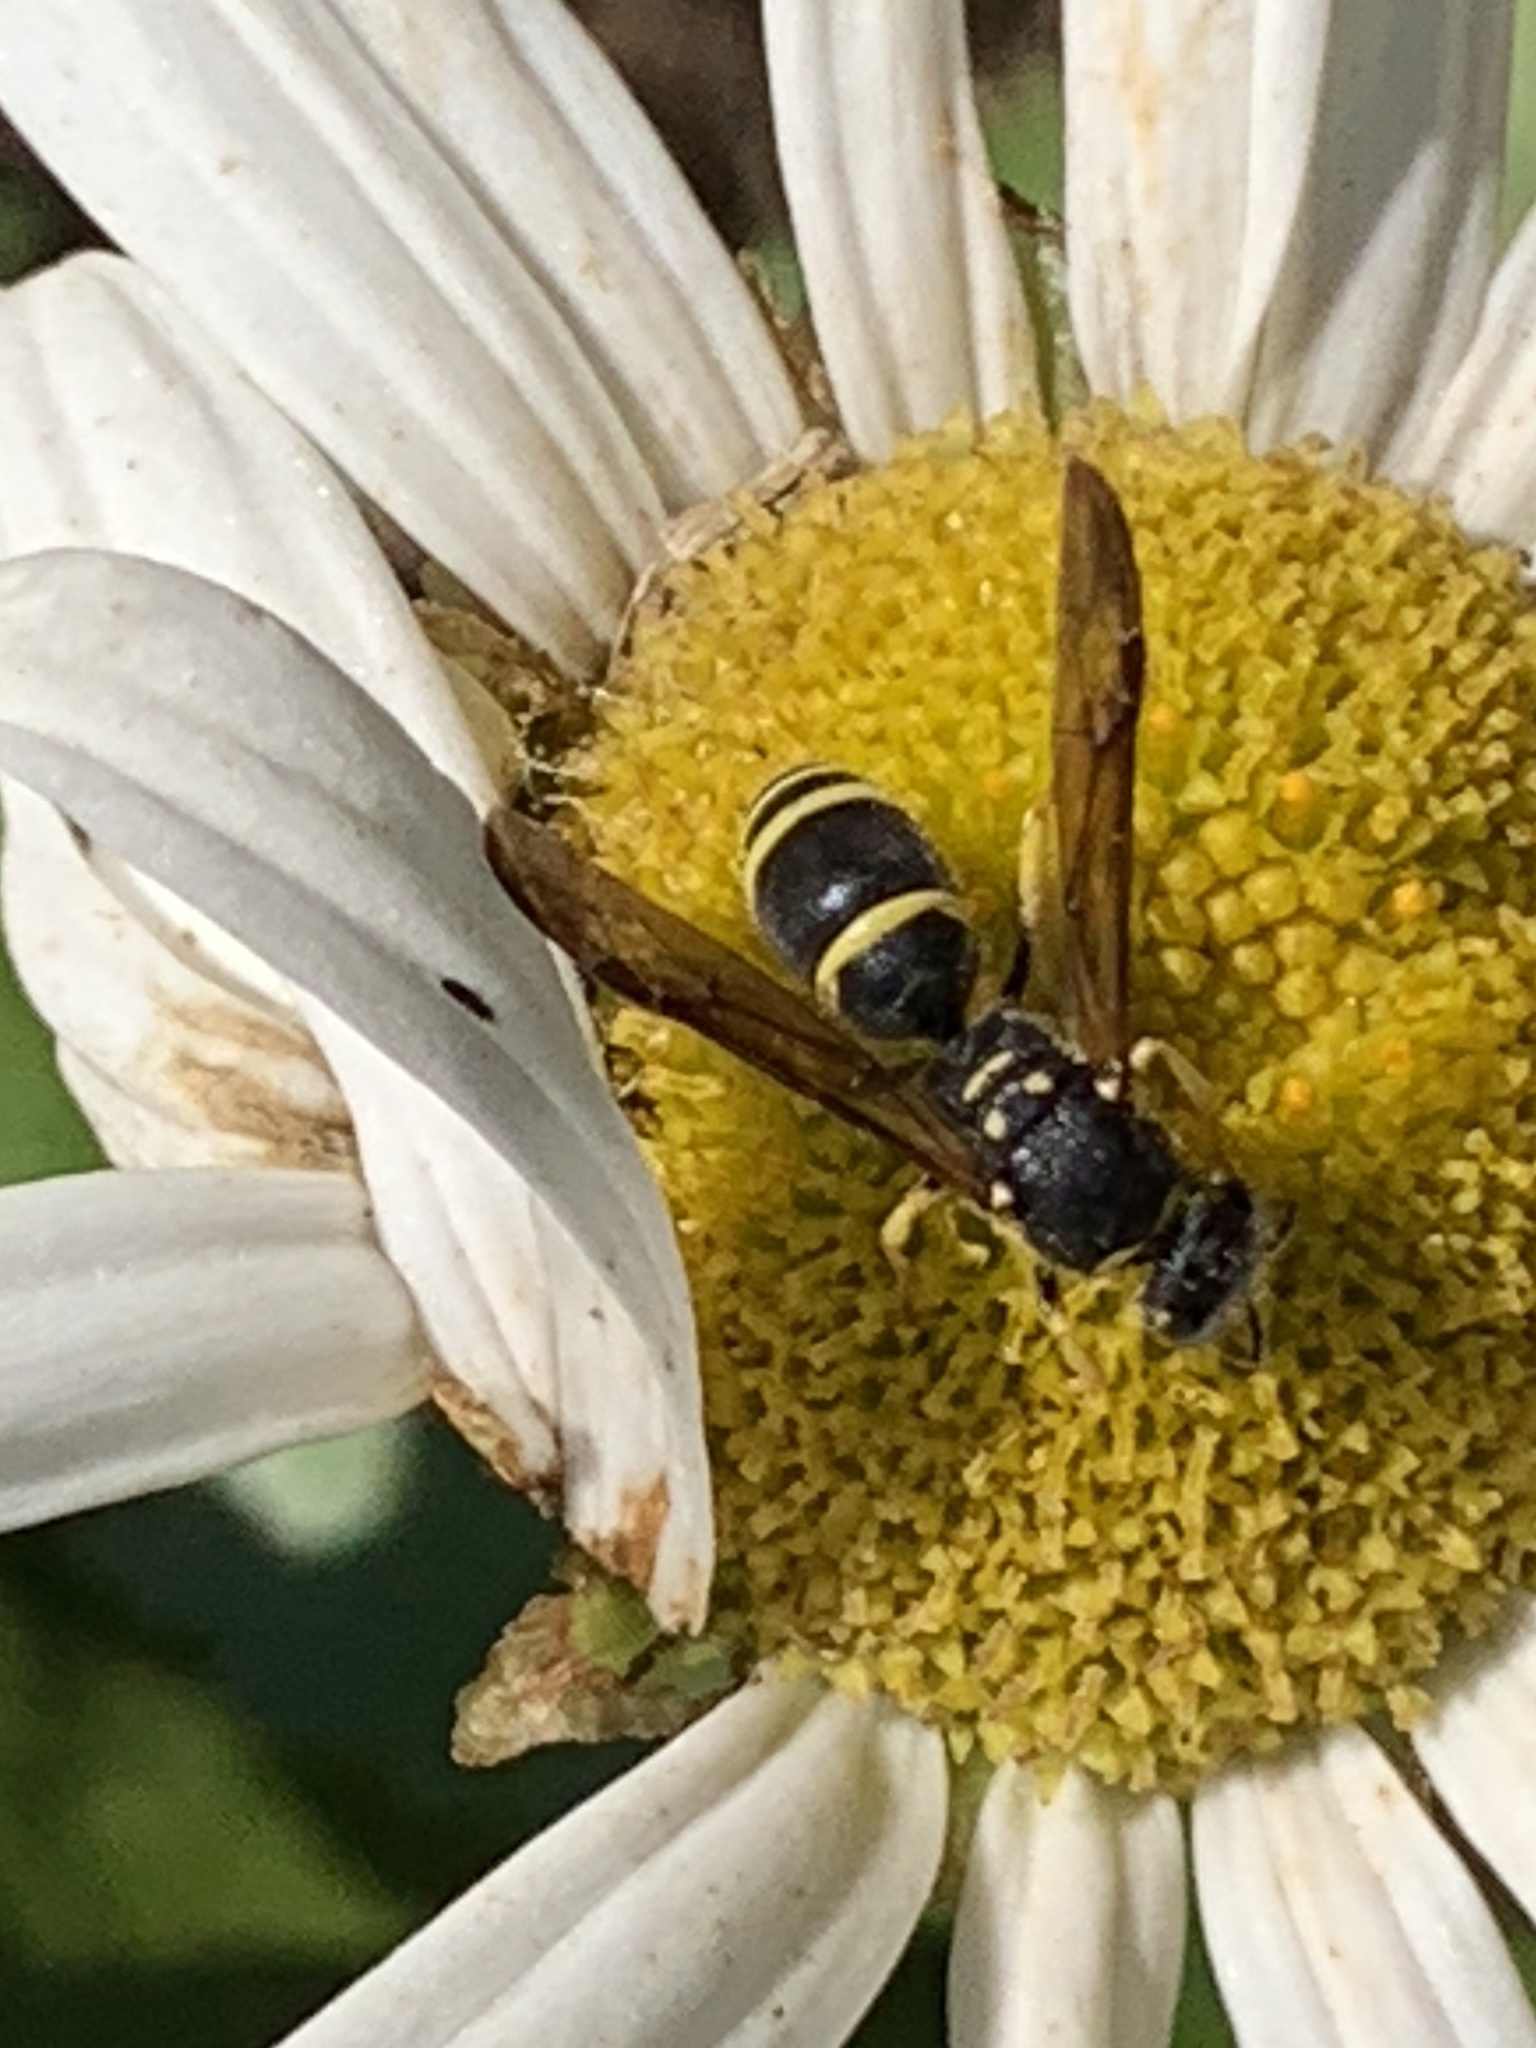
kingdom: Animalia
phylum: Arthropoda
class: Insecta
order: Hymenoptera
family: Vespidae
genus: Ancistrocerus
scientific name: Ancistrocerus adiabatus
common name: Bramble mason wasp
